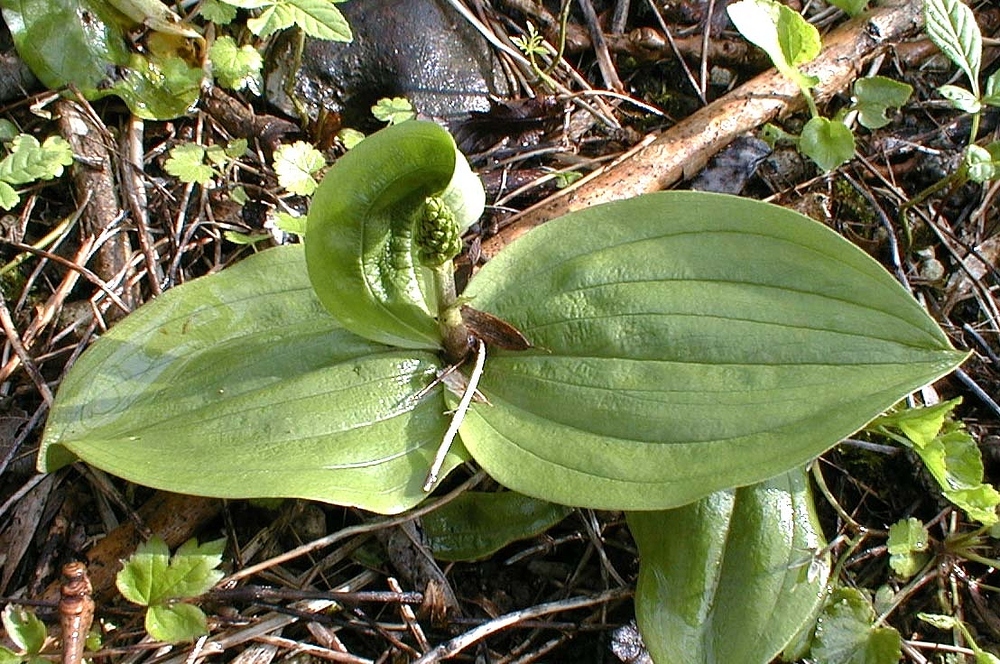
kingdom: Plantae
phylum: Tracheophyta
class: Liliopsida
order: Asparagales
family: Orchidaceae
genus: Neottia
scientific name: Neottia ovata
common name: Common twayblade
